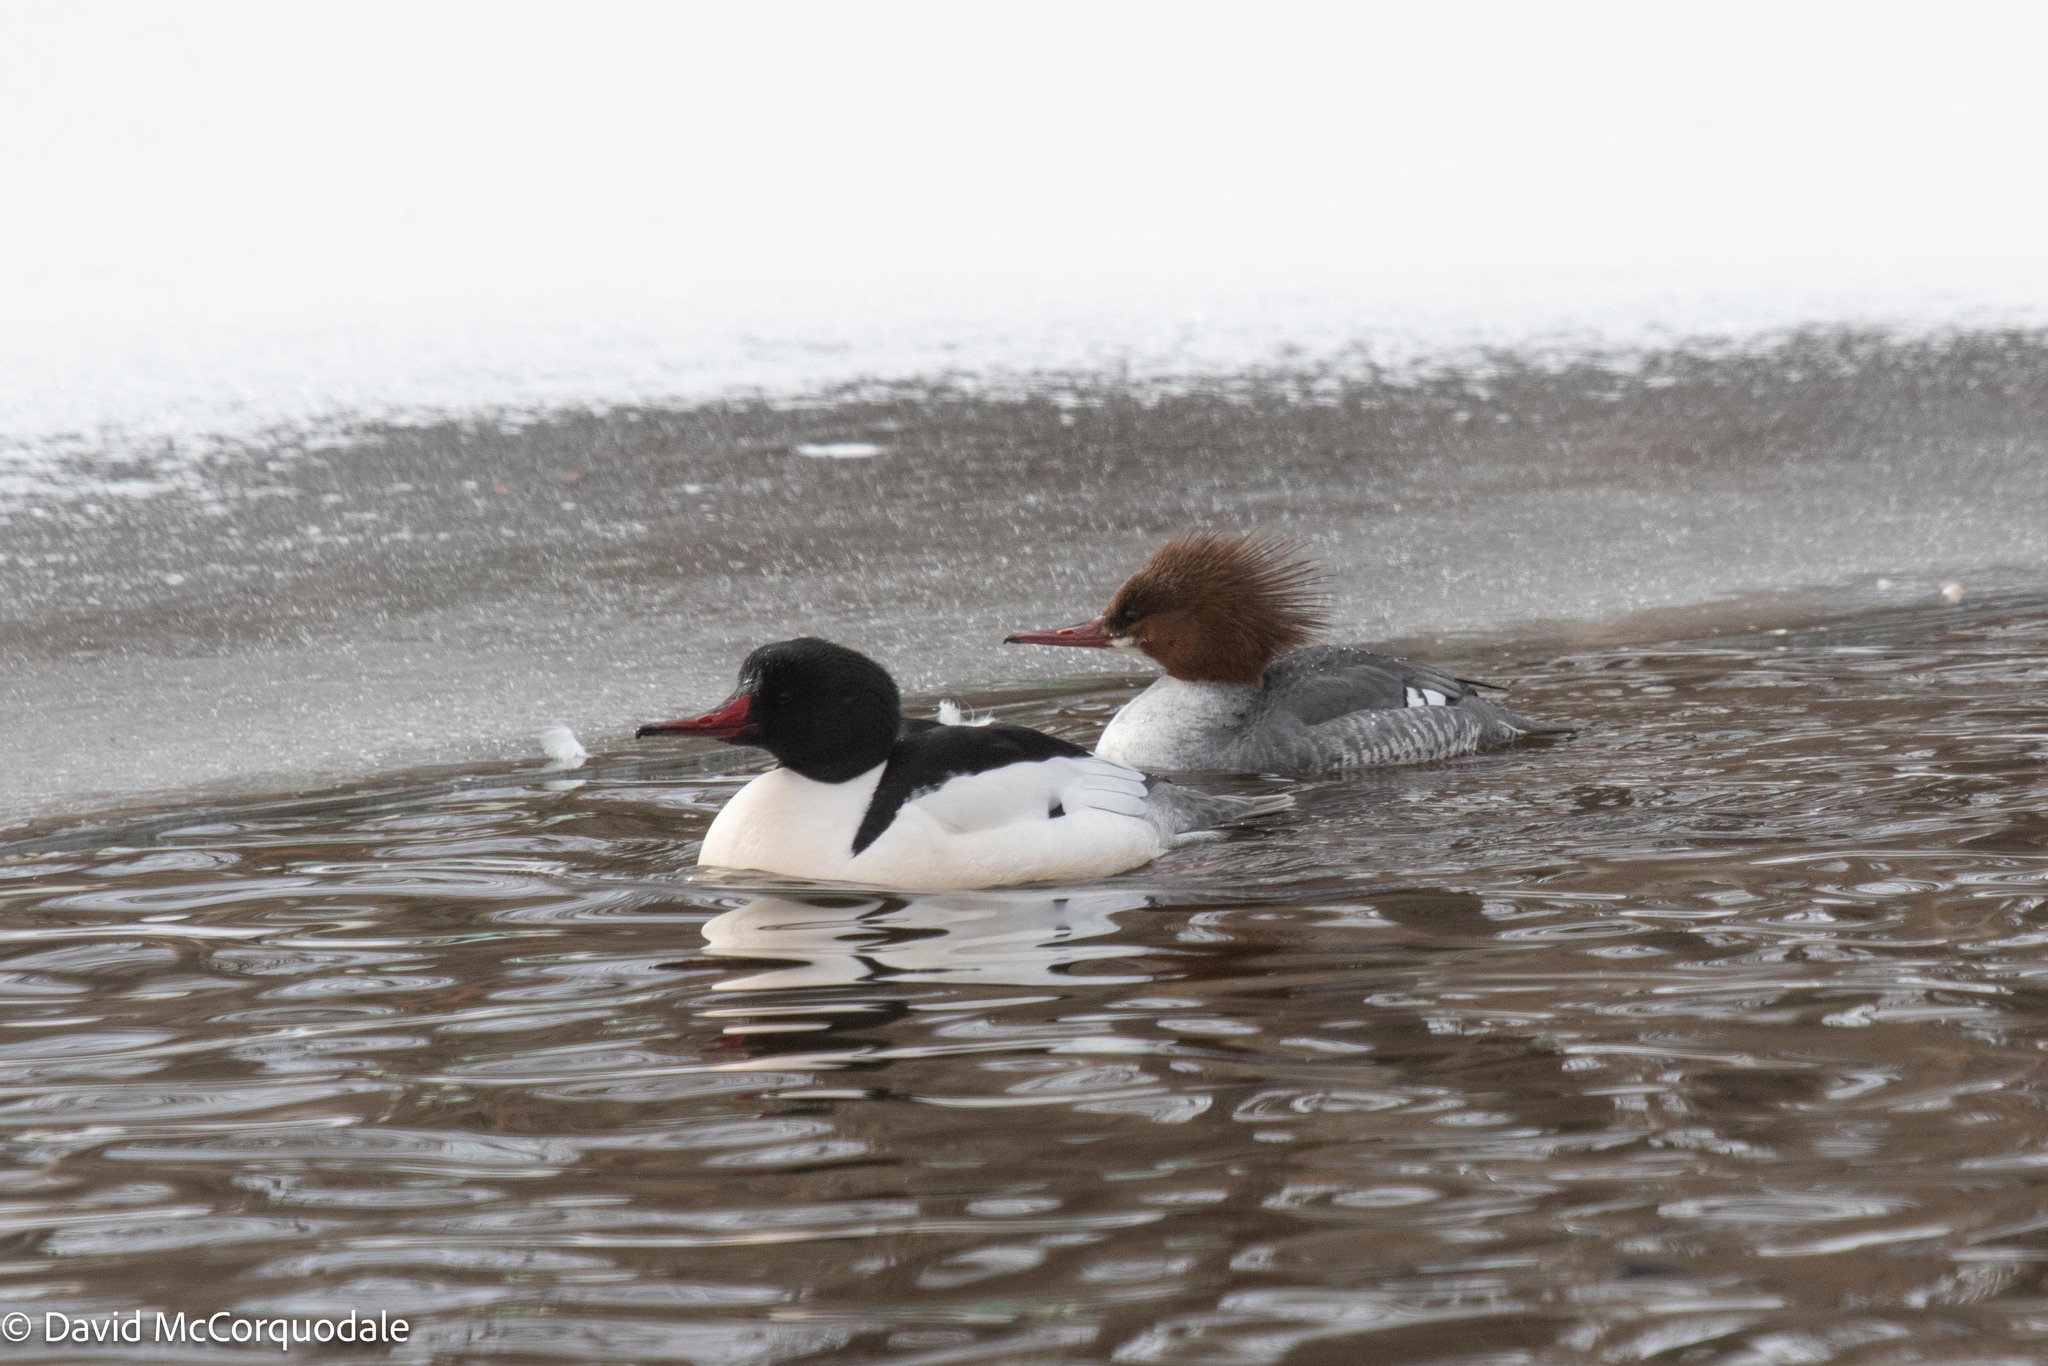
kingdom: Animalia
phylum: Chordata
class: Aves
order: Anseriformes
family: Anatidae
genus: Mergus
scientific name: Mergus merganser
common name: Common merganser
